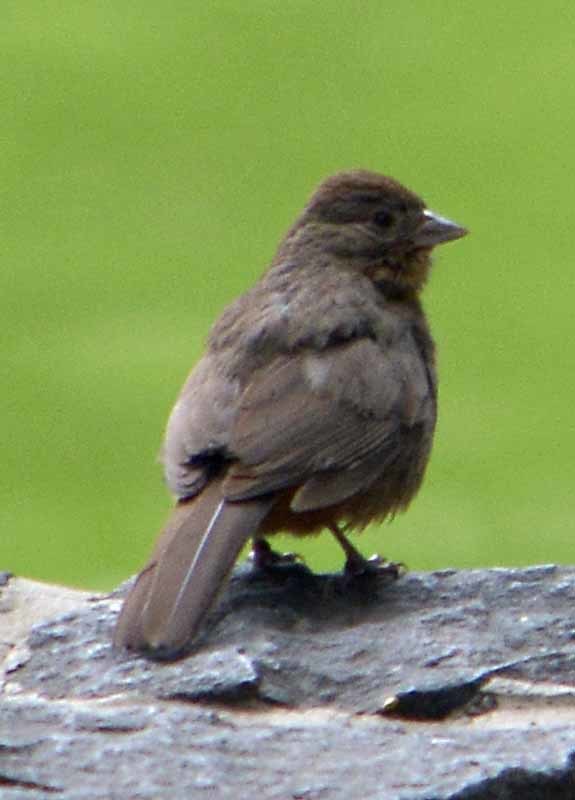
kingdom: Animalia
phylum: Chordata
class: Aves
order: Passeriformes
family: Passerellidae
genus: Melozone
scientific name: Melozone fusca
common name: Canyon towhee
